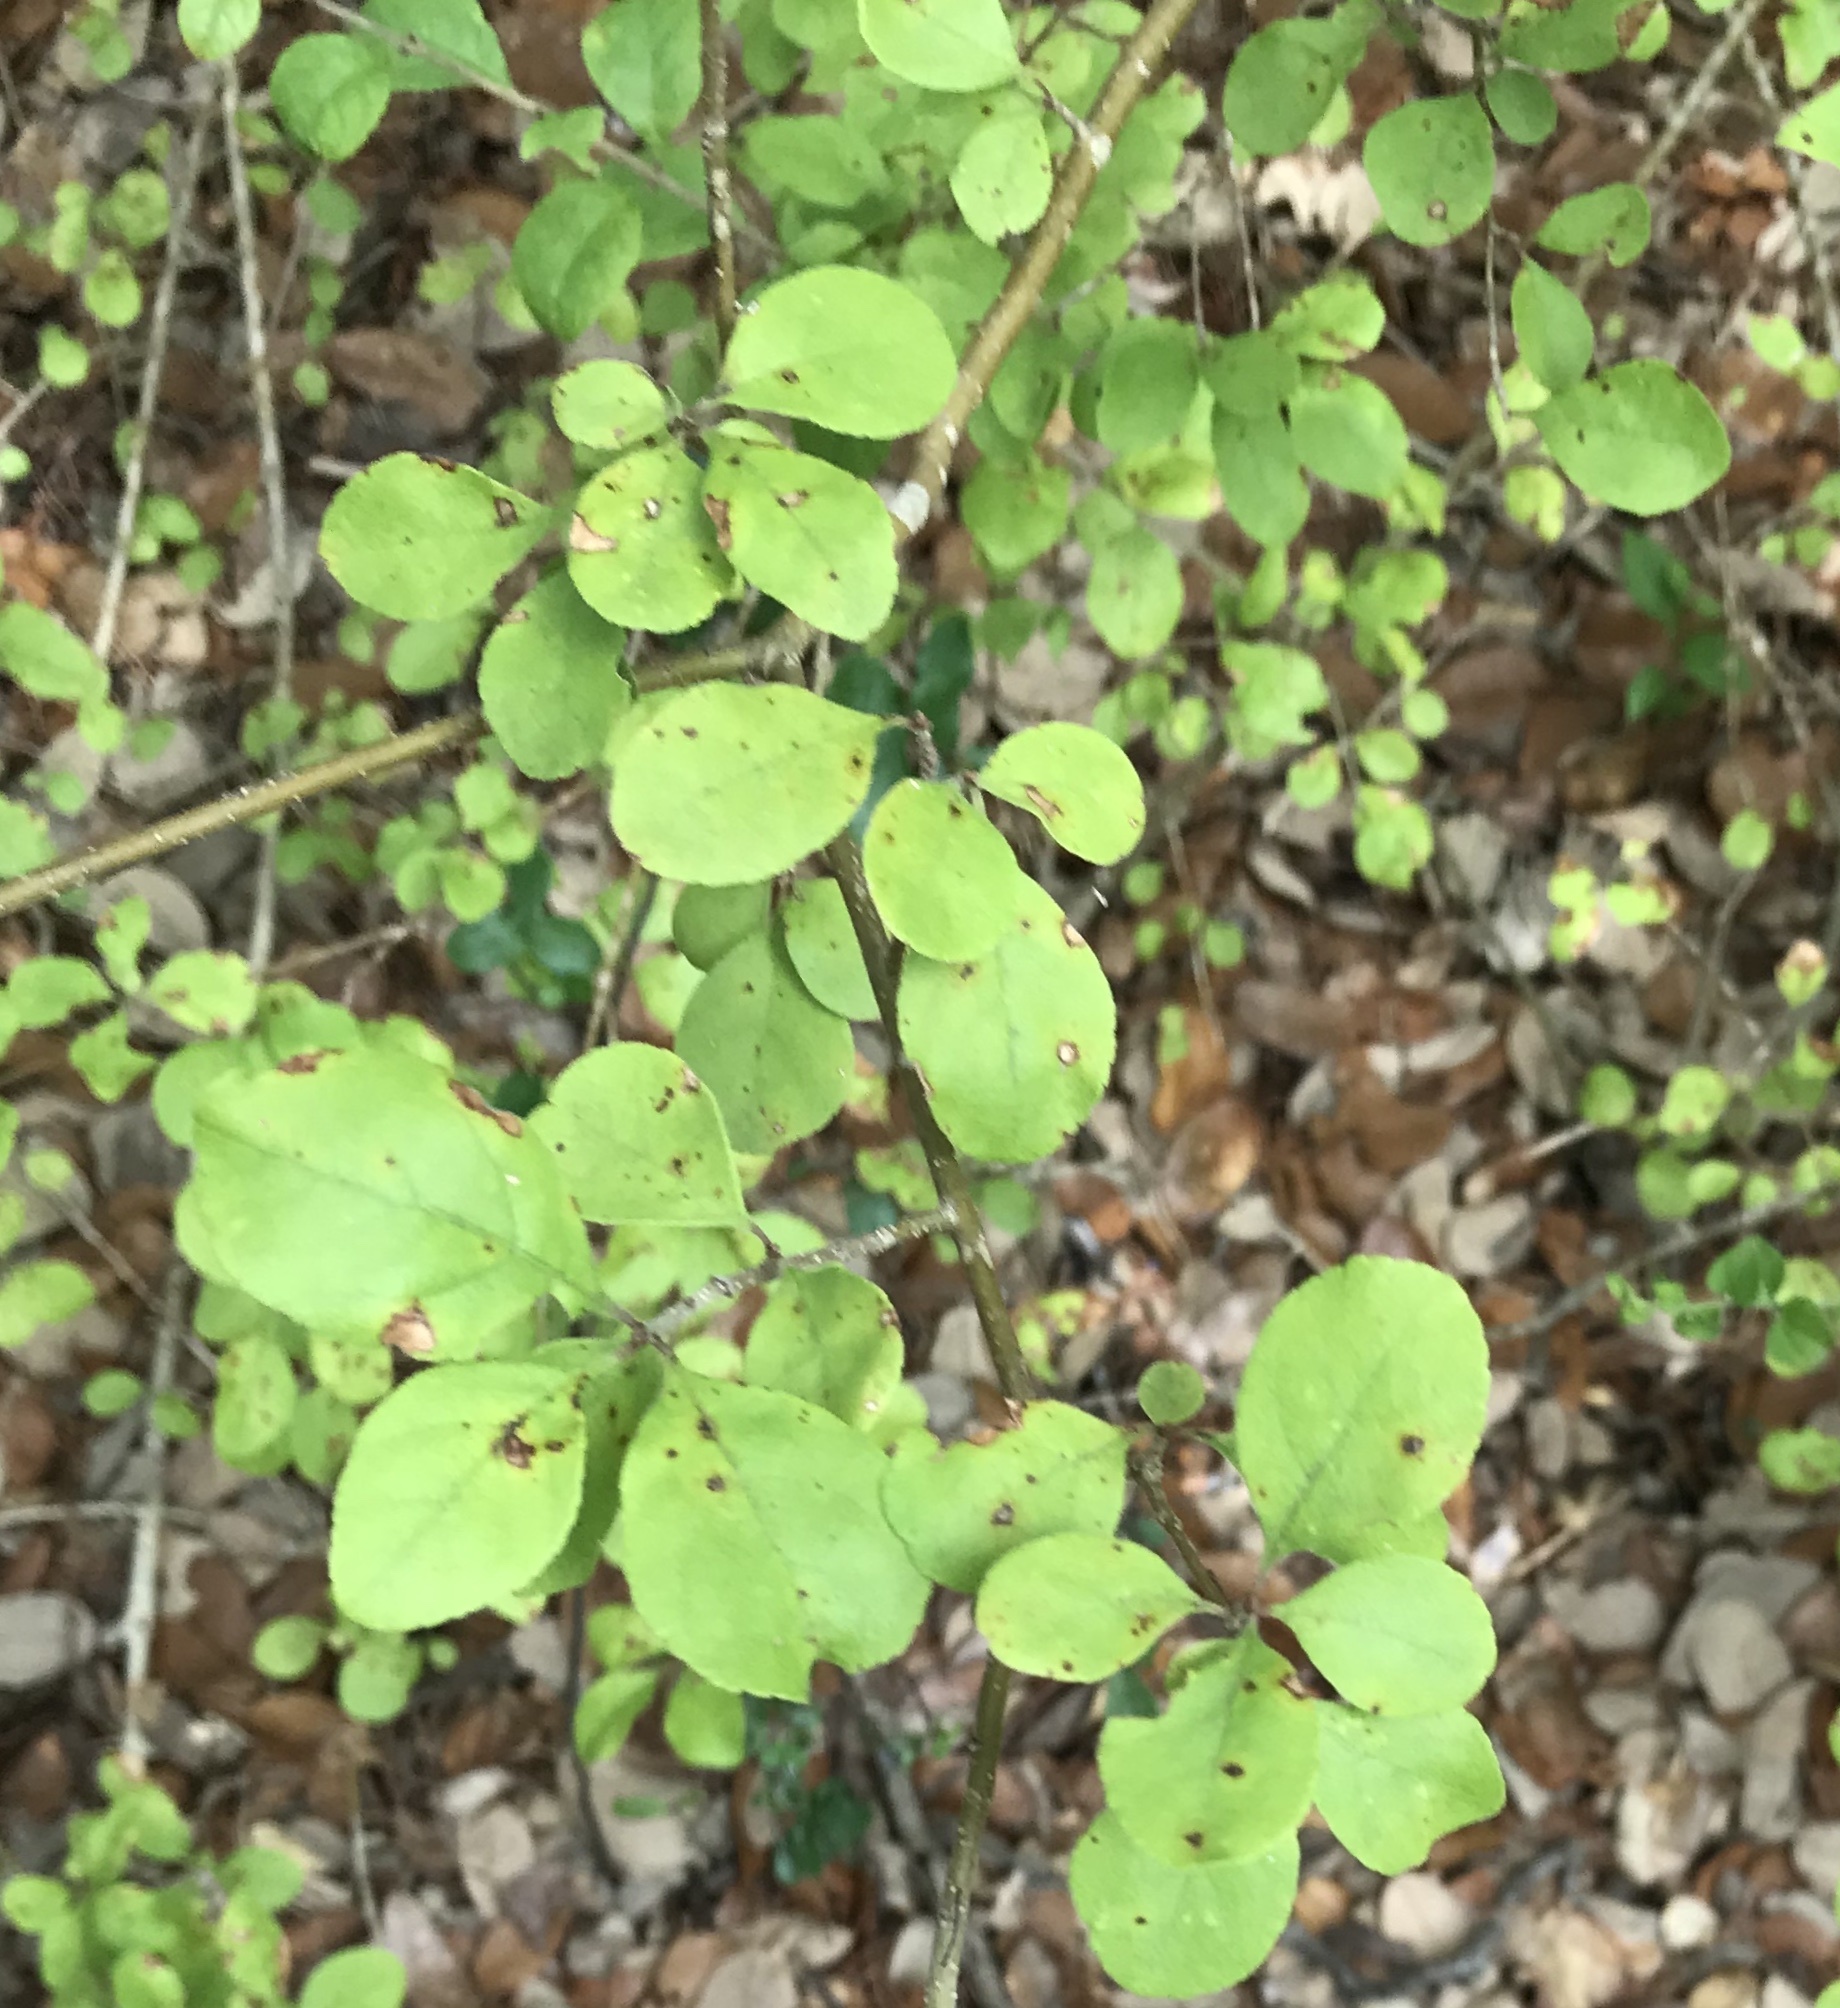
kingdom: Plantae
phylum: Tracheophyta
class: Magnoliopsida
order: Lamiales
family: Oleaceae
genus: Forestiera
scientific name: Forestiera pubescens
